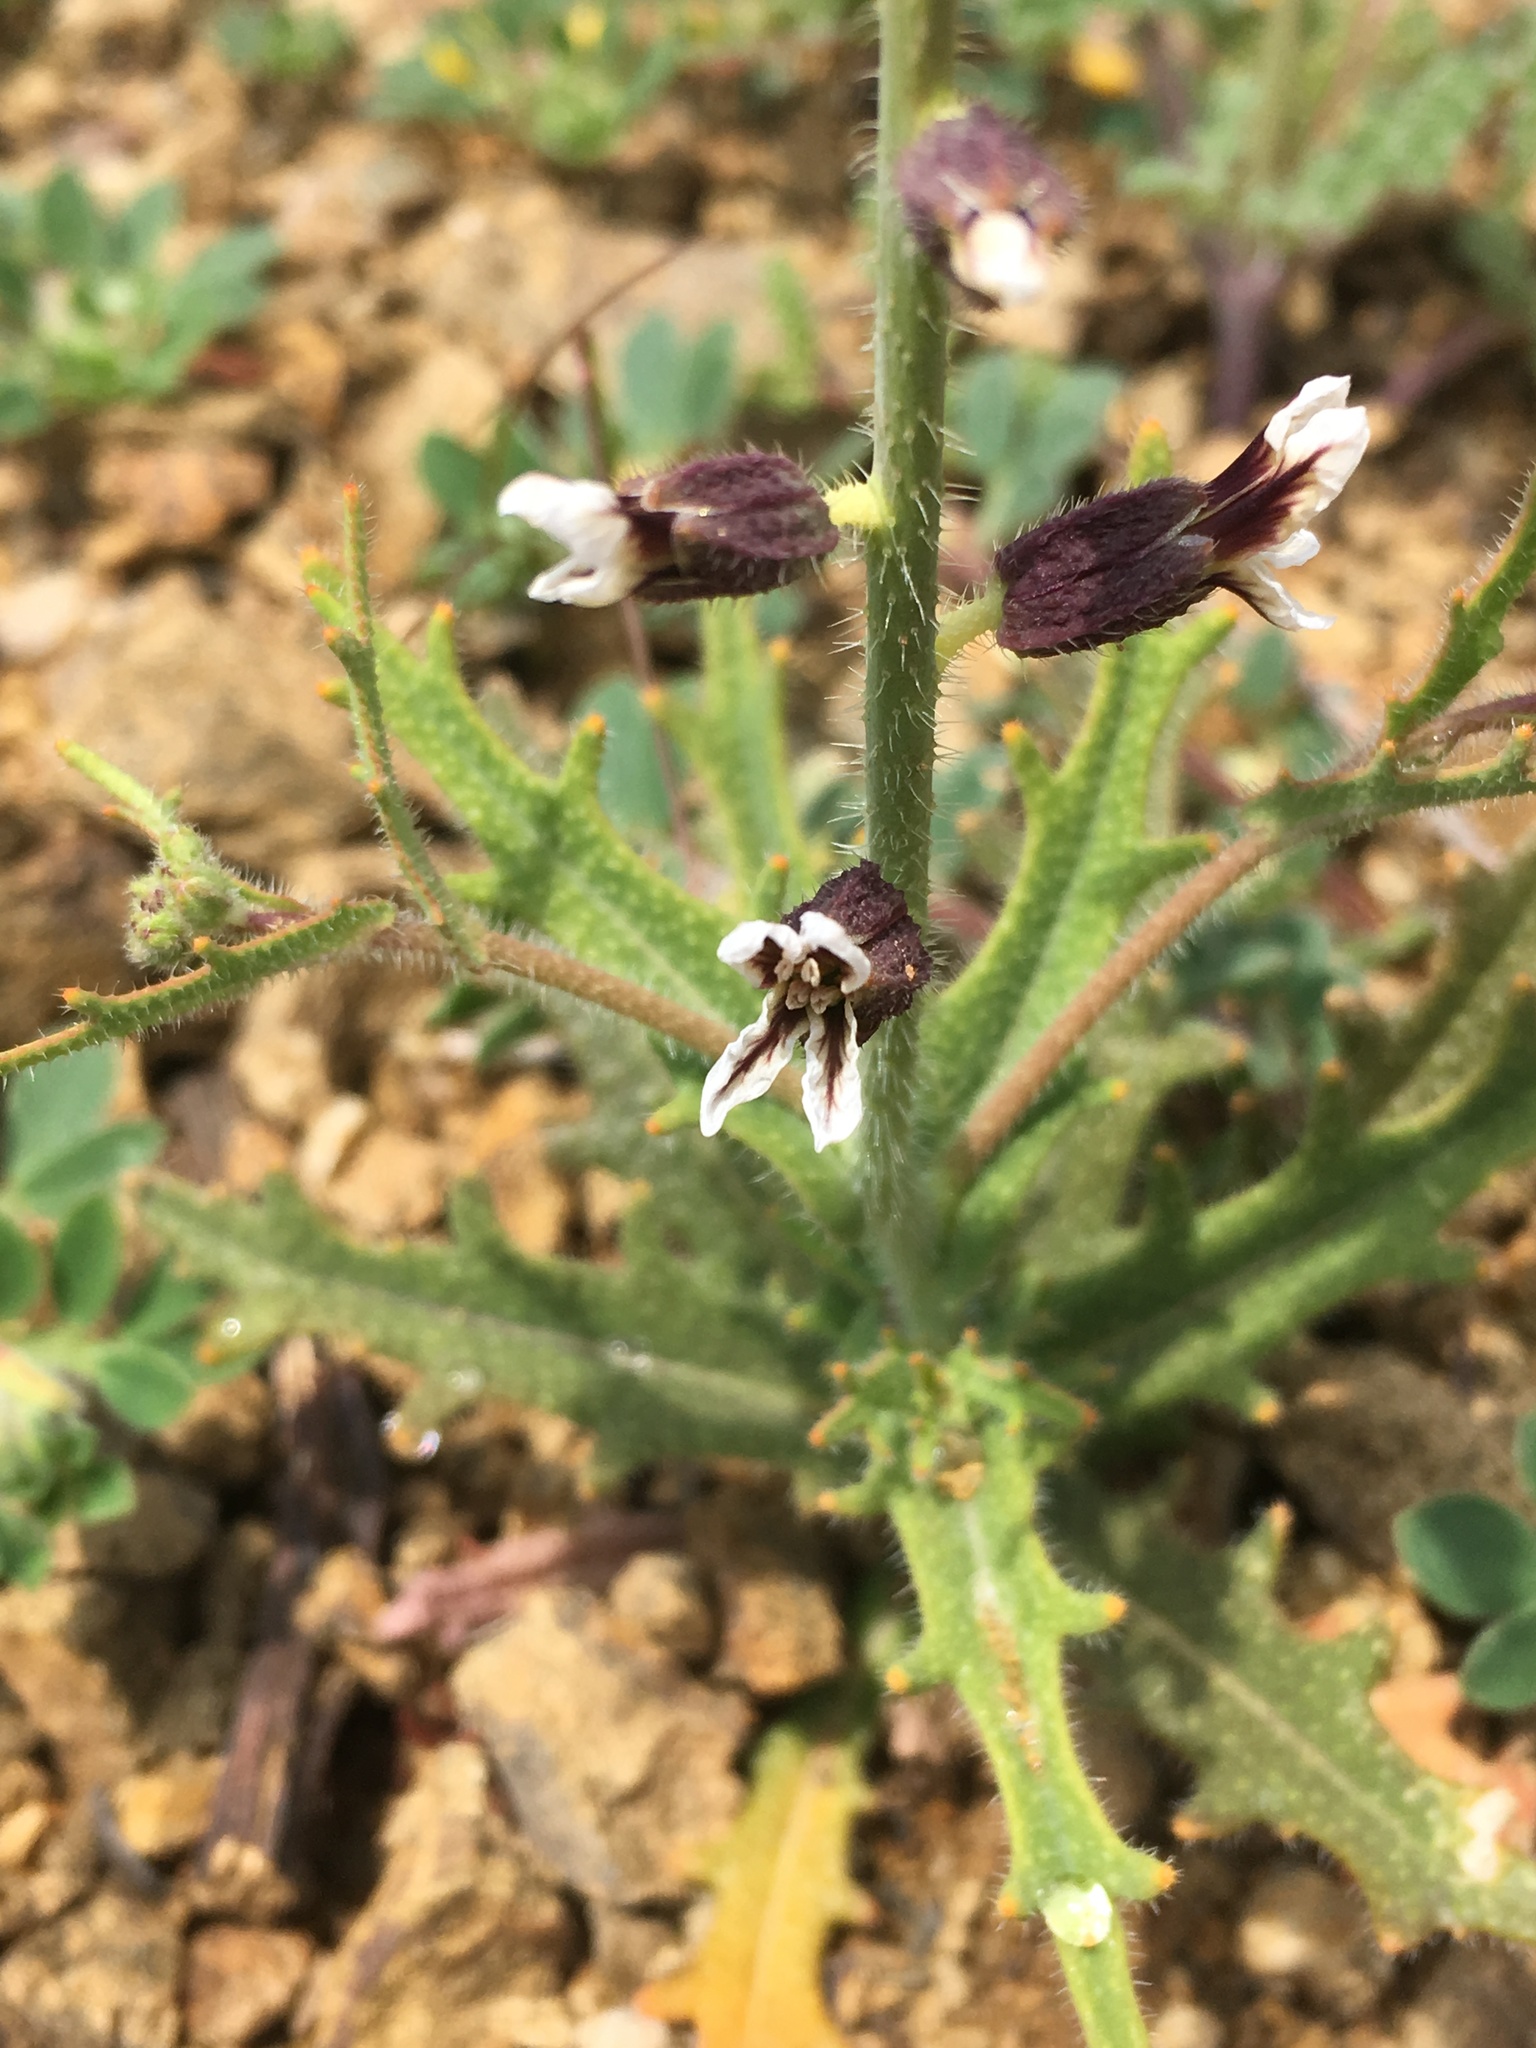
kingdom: Plantae
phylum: Tracheophyta
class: Magnoliopsida
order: Brassicales
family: Brassicaceae
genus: Streptanthus
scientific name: Streptanthus insignis
